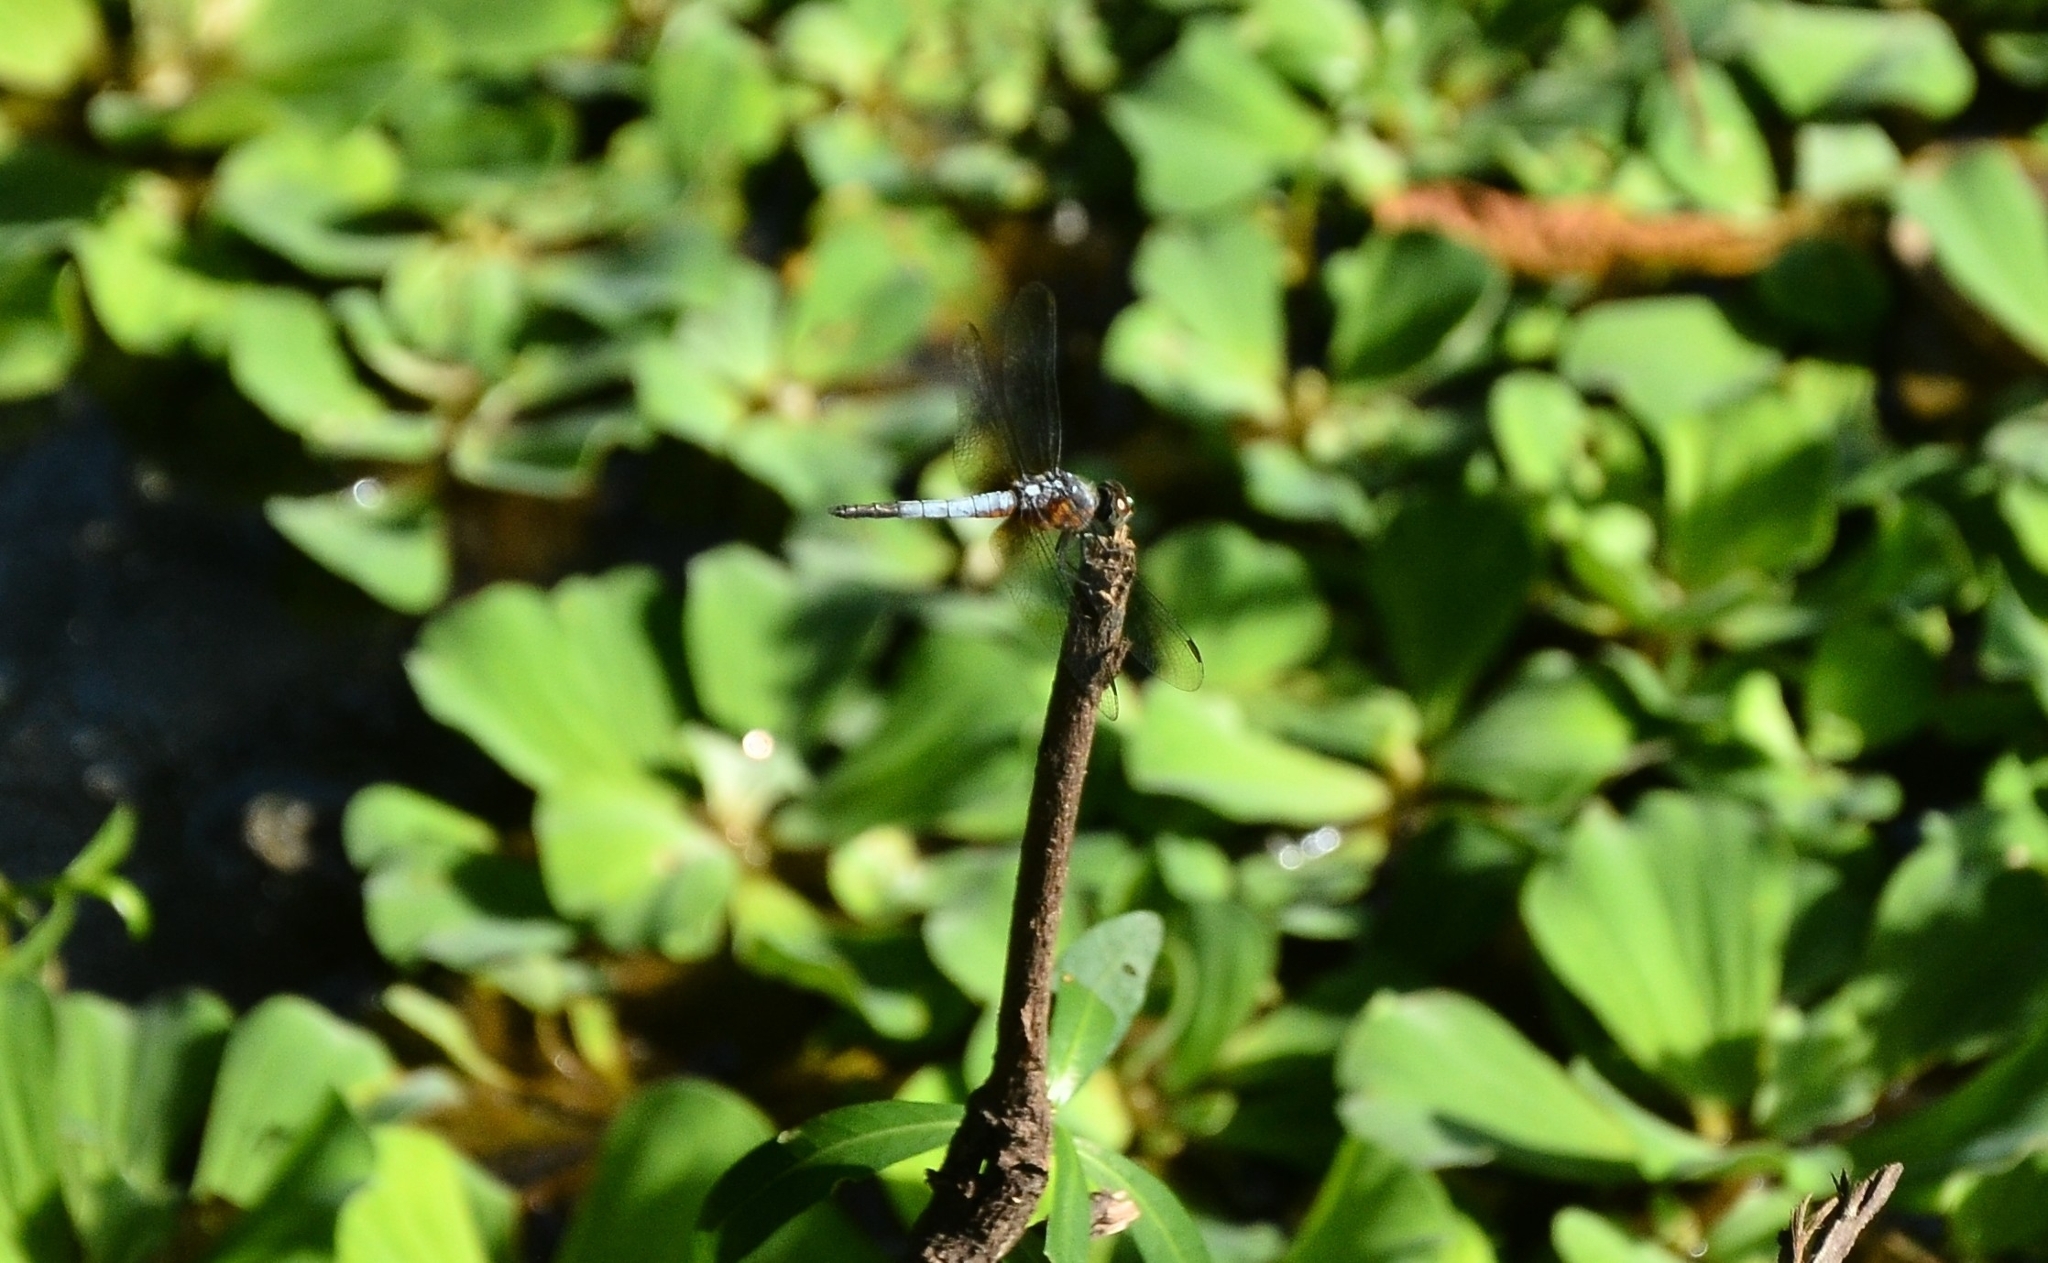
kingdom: Animalia
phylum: Arthropoda
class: Insecta
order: Odonata
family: Libellulidae
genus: Brachydiplax
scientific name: Brachydiplax chalybea
